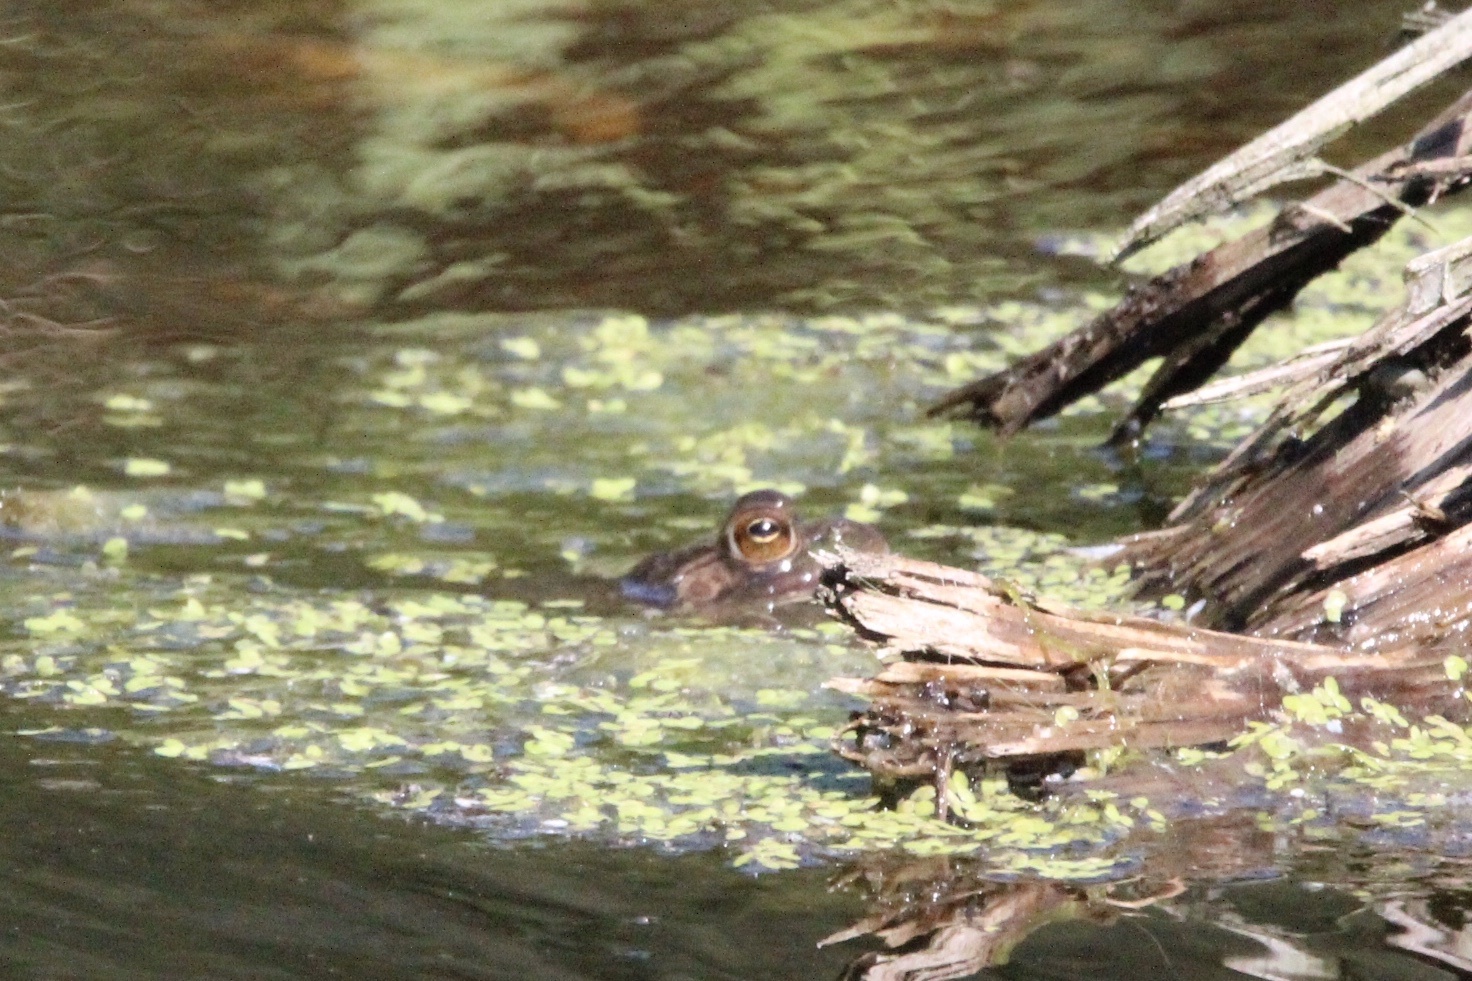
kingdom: Animalia
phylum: Chordata
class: Amphibia
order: Anura
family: Ranidae
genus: Lithobates
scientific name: Lithobates catesbeianus
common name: American bullfrog
